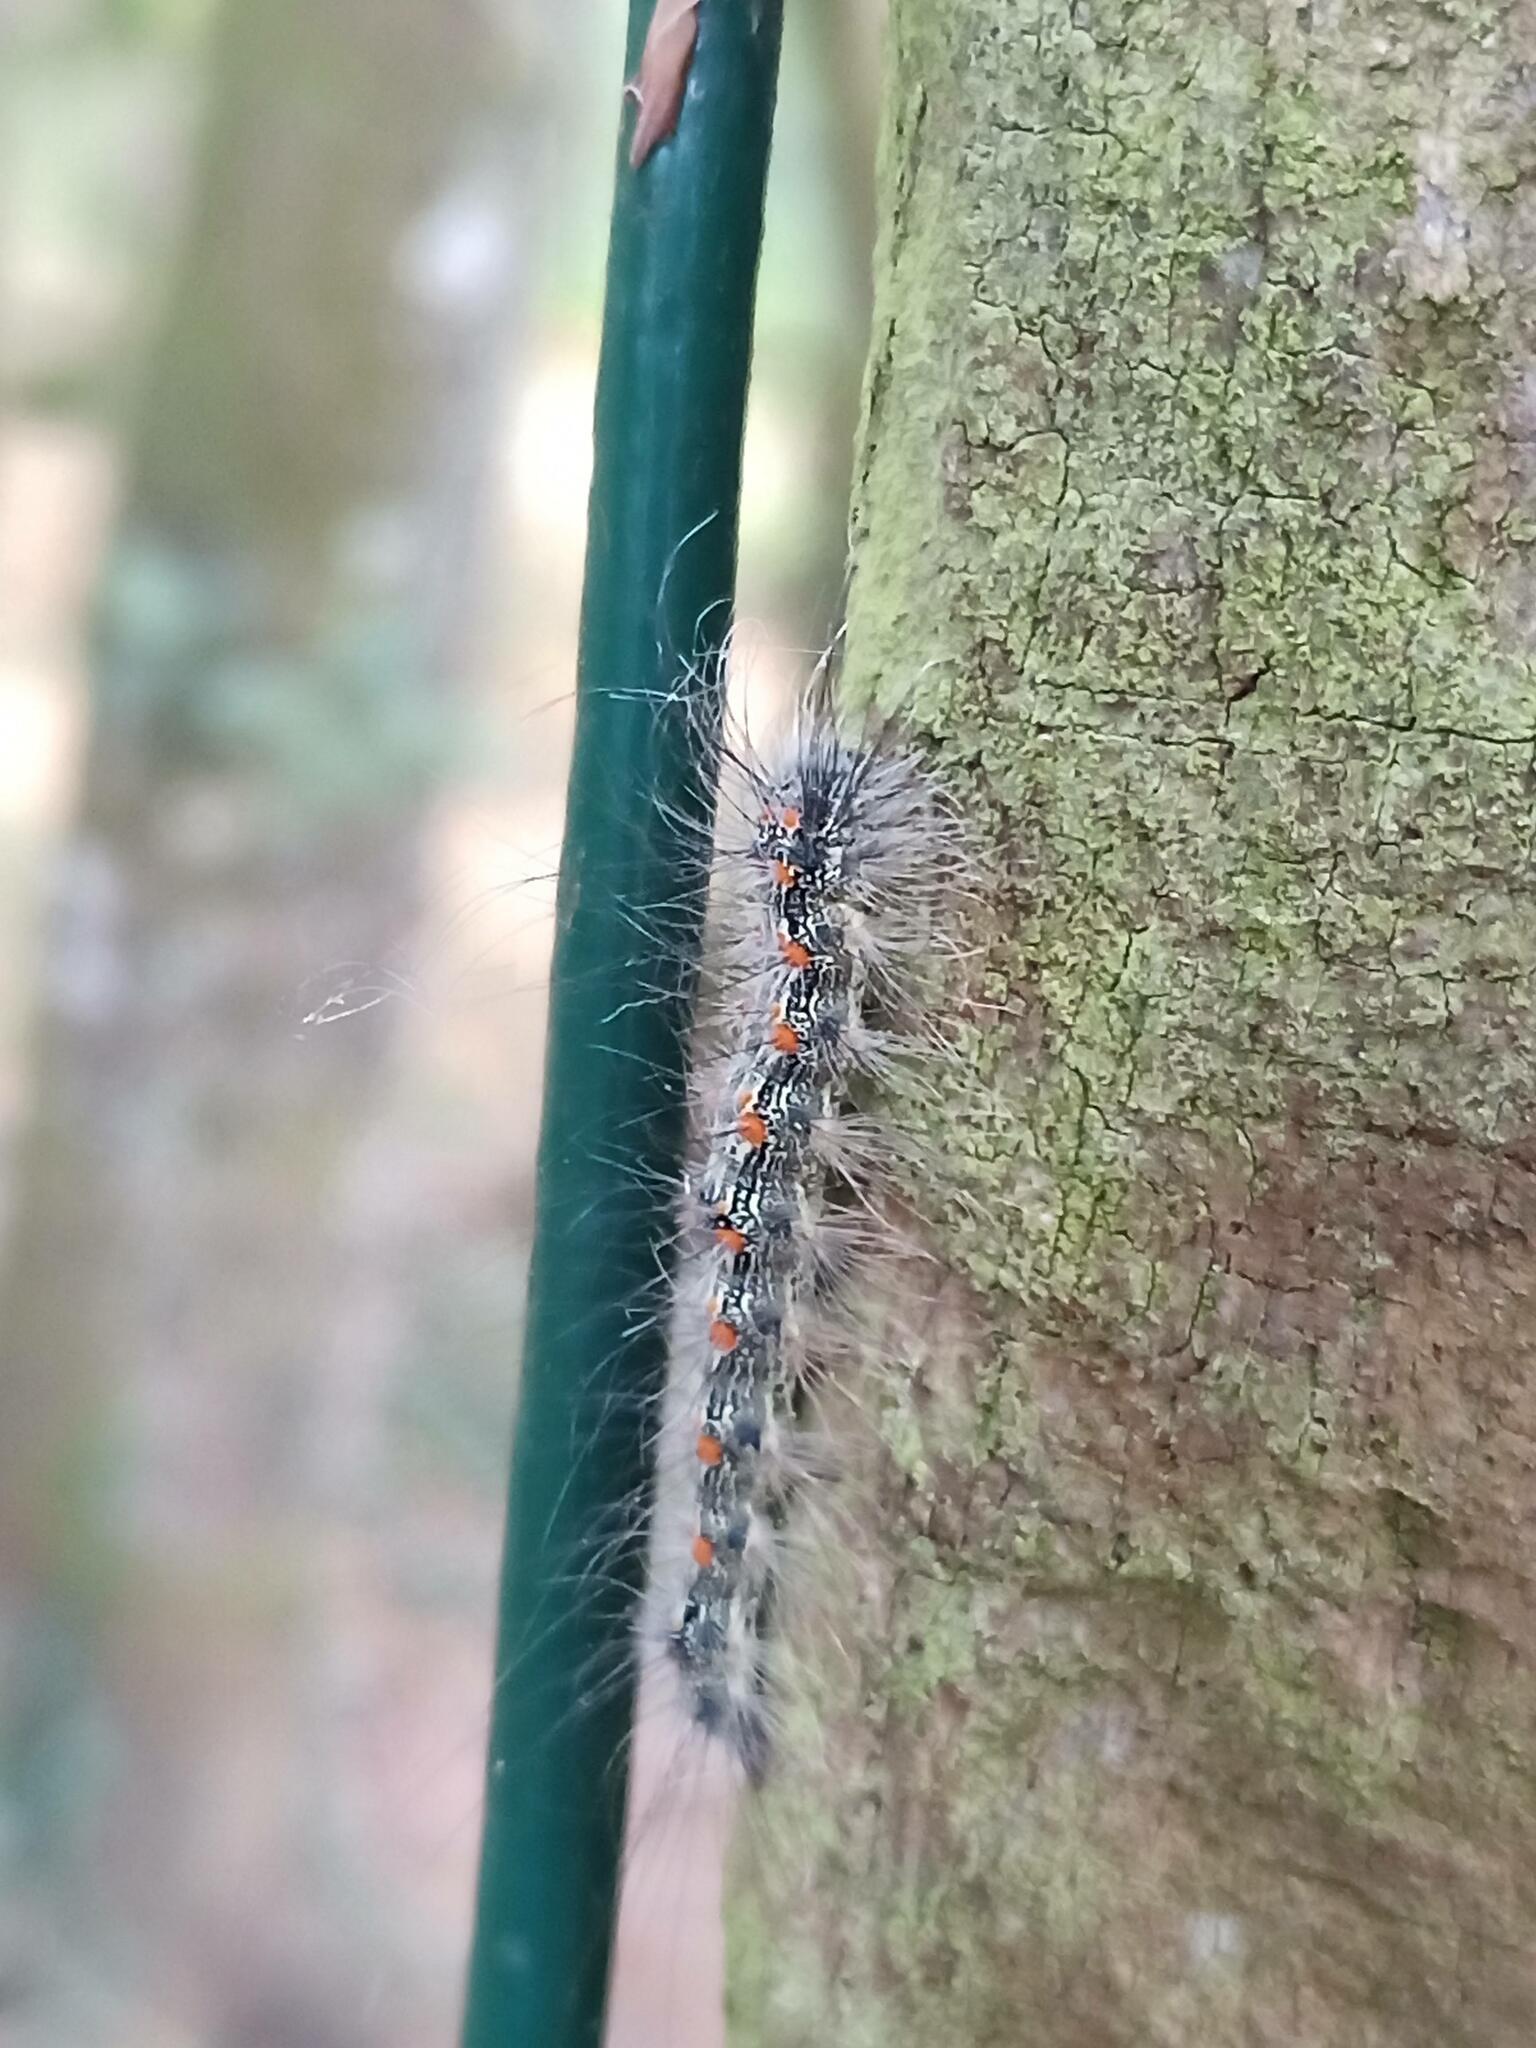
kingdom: Animalia
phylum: Arthropoda
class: Insecta
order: Lepidoptera
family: Erebidae
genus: Lithosia
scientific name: Lithosia quadra
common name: Four-spotted footman
